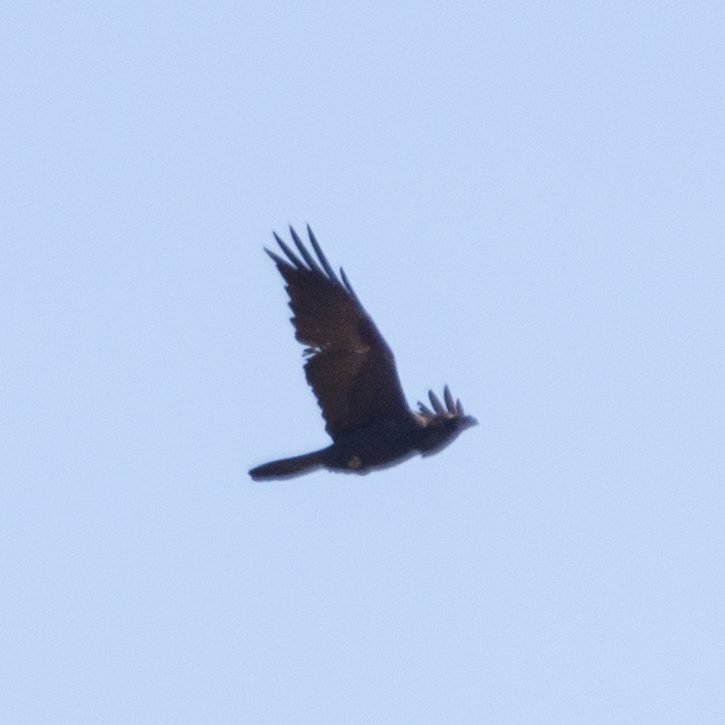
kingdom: Animalia
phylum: Chordata
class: Aves
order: Passeriformes
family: Corvidae
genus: Corvus
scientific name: Corvus corax
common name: Common raven
